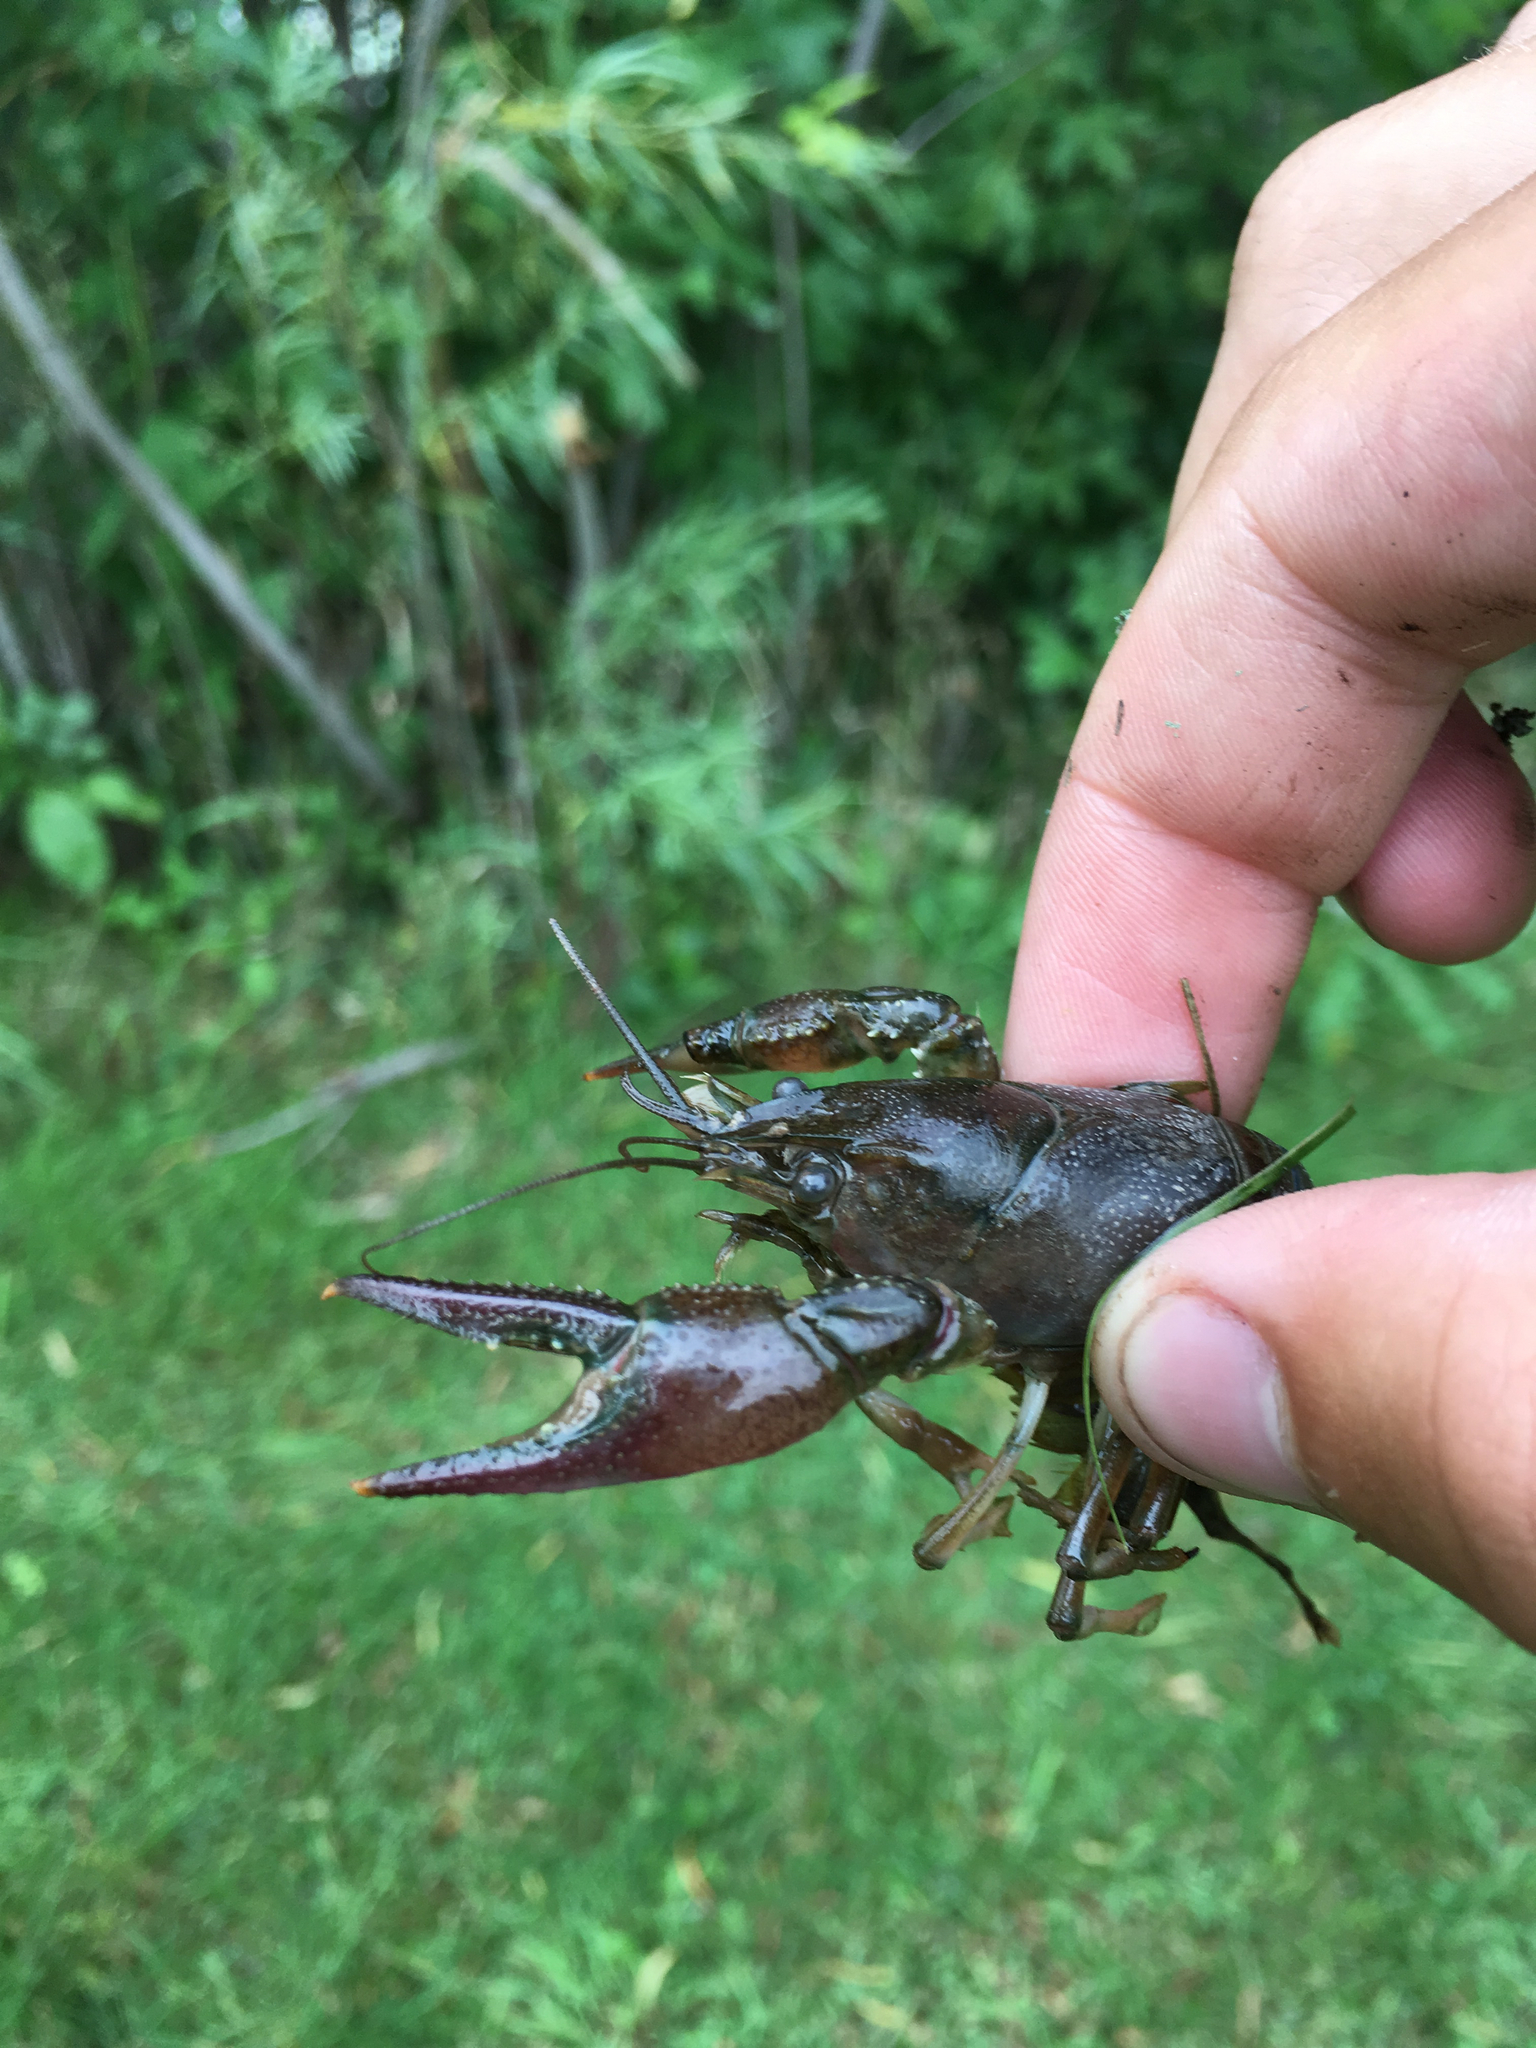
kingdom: Animalia
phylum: Arthropoda
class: Malacostraca
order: Decapoda
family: Cambaridae
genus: Faxonius
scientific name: Faxonius immunis
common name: Calico crayfish
